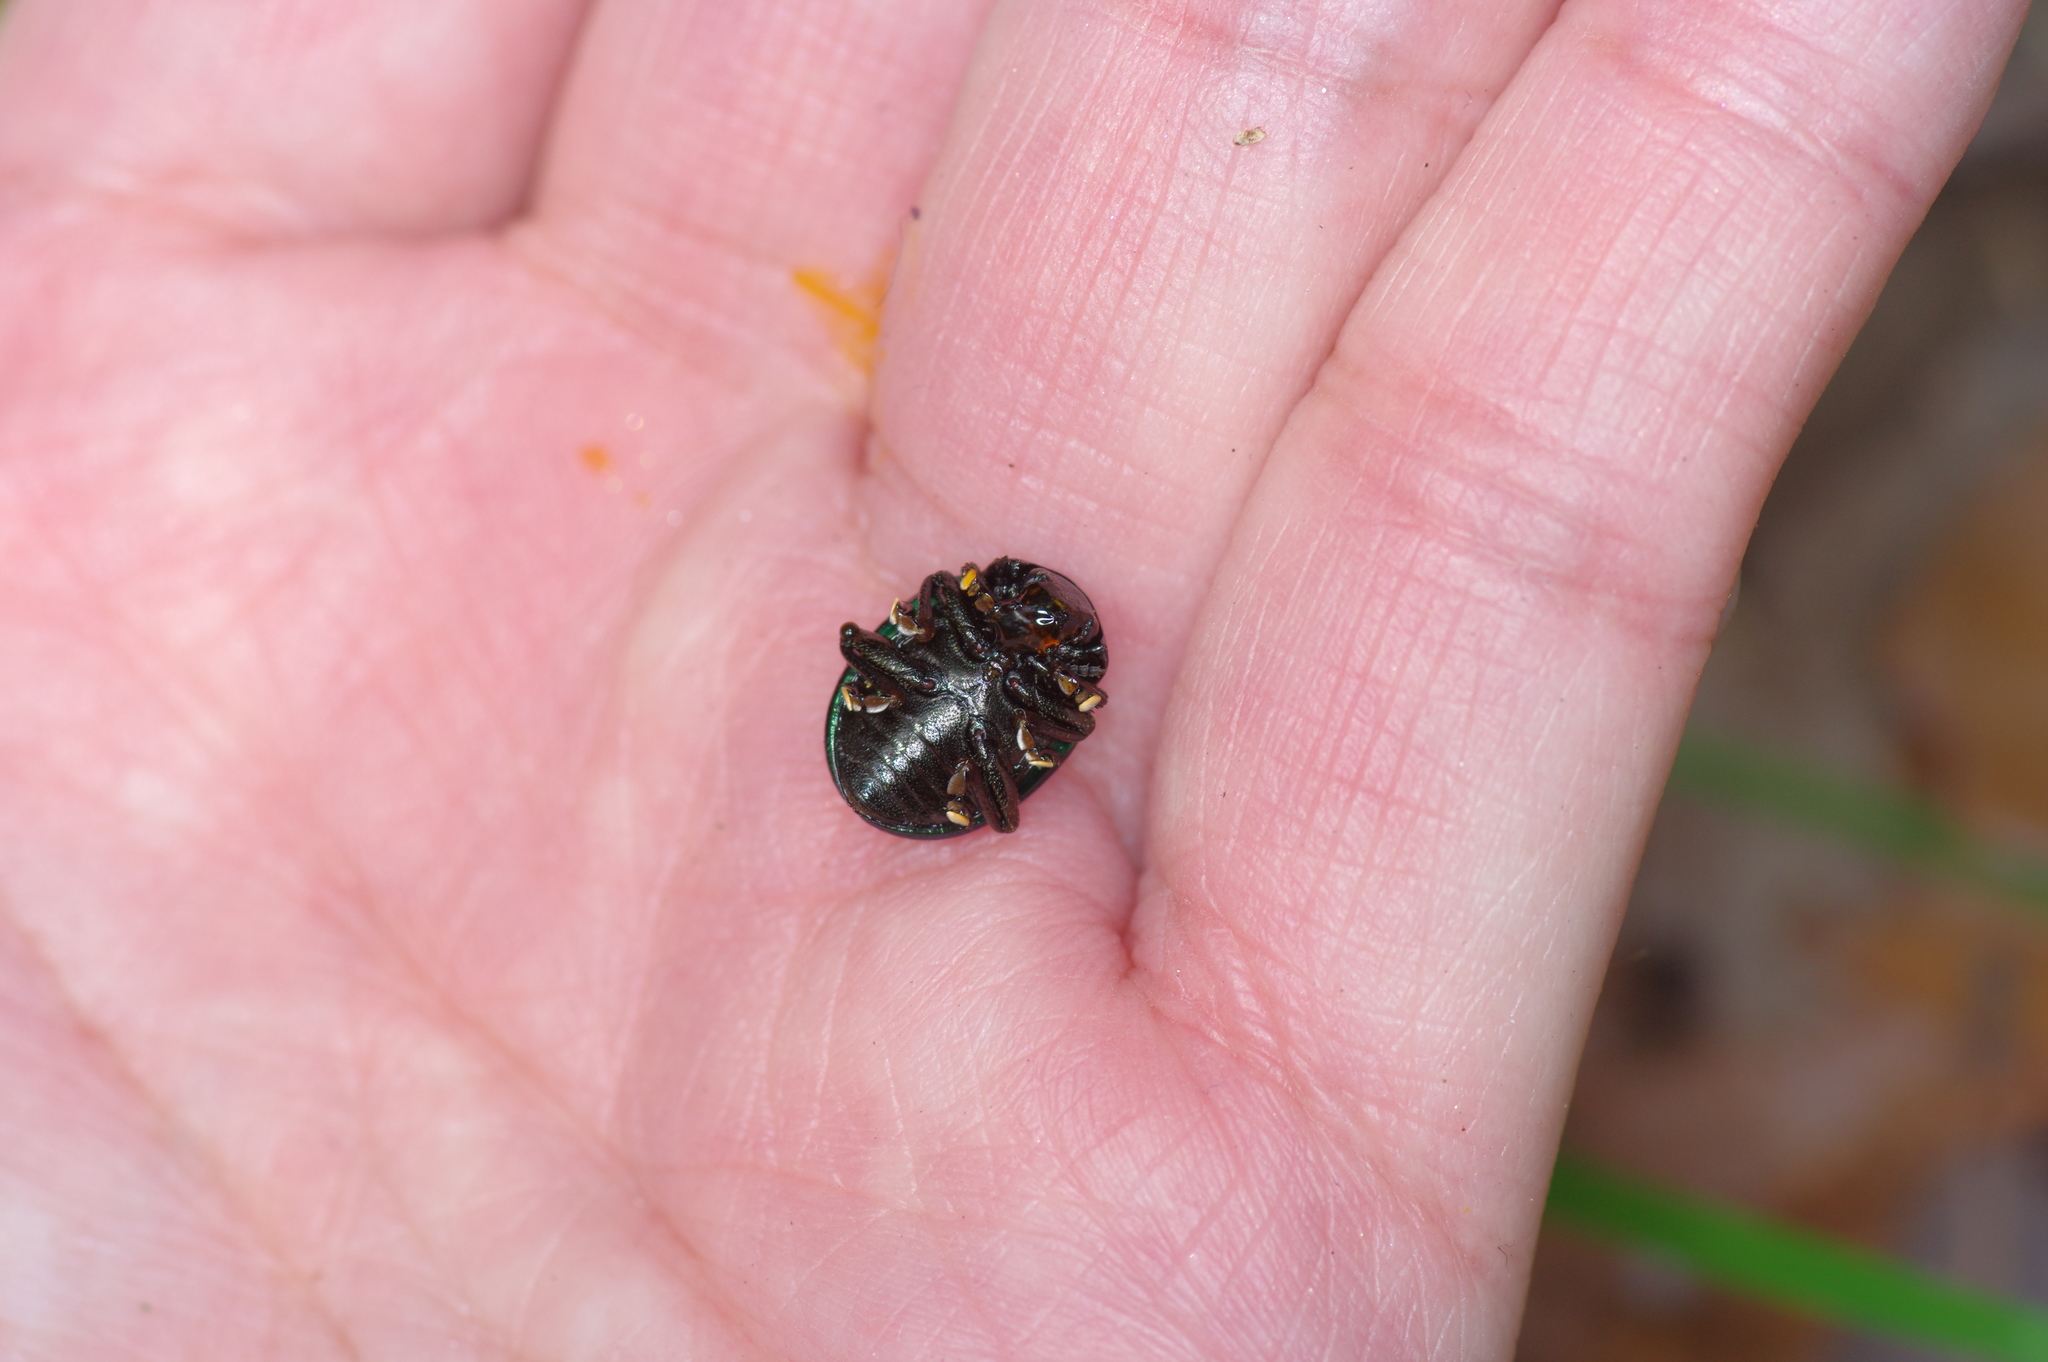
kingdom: Animalia
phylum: Arthropoda
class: Insecta
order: Coleoptera
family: Chrysomelidae
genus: Leptinotarsa
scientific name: Leptinotarsa haldemani
